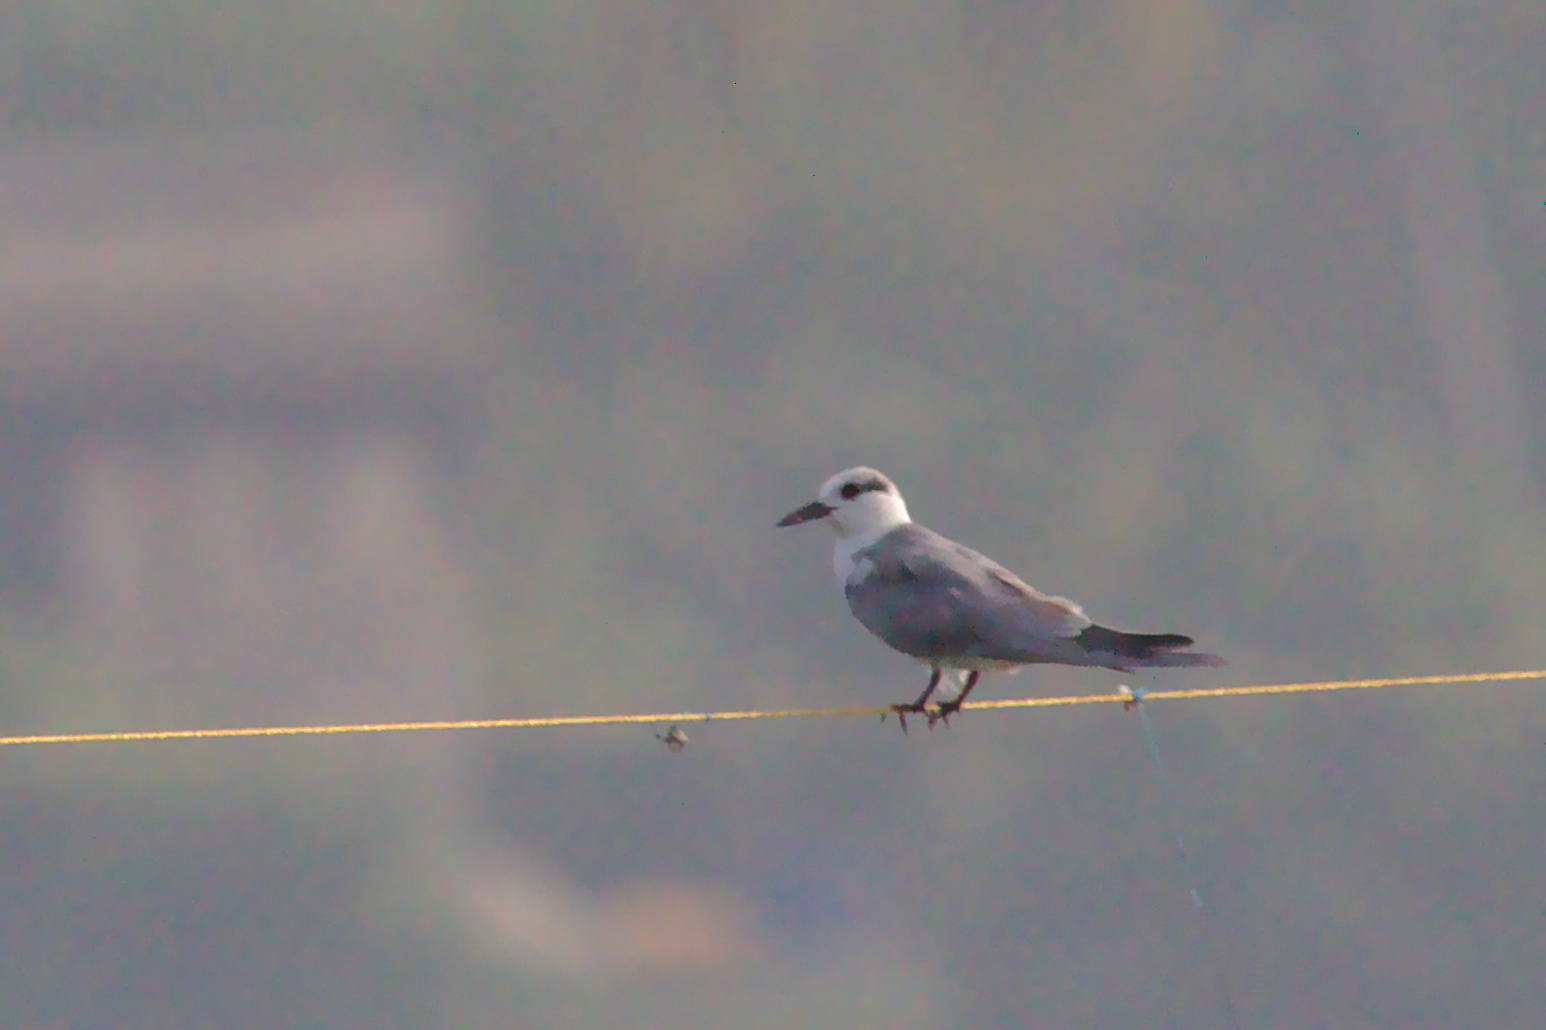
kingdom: Animalia
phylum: Chordata
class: Aves
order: Charadriiformes
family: Laridae
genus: Chlidonias
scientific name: Chlidonias hybrida
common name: Whiskered tern
